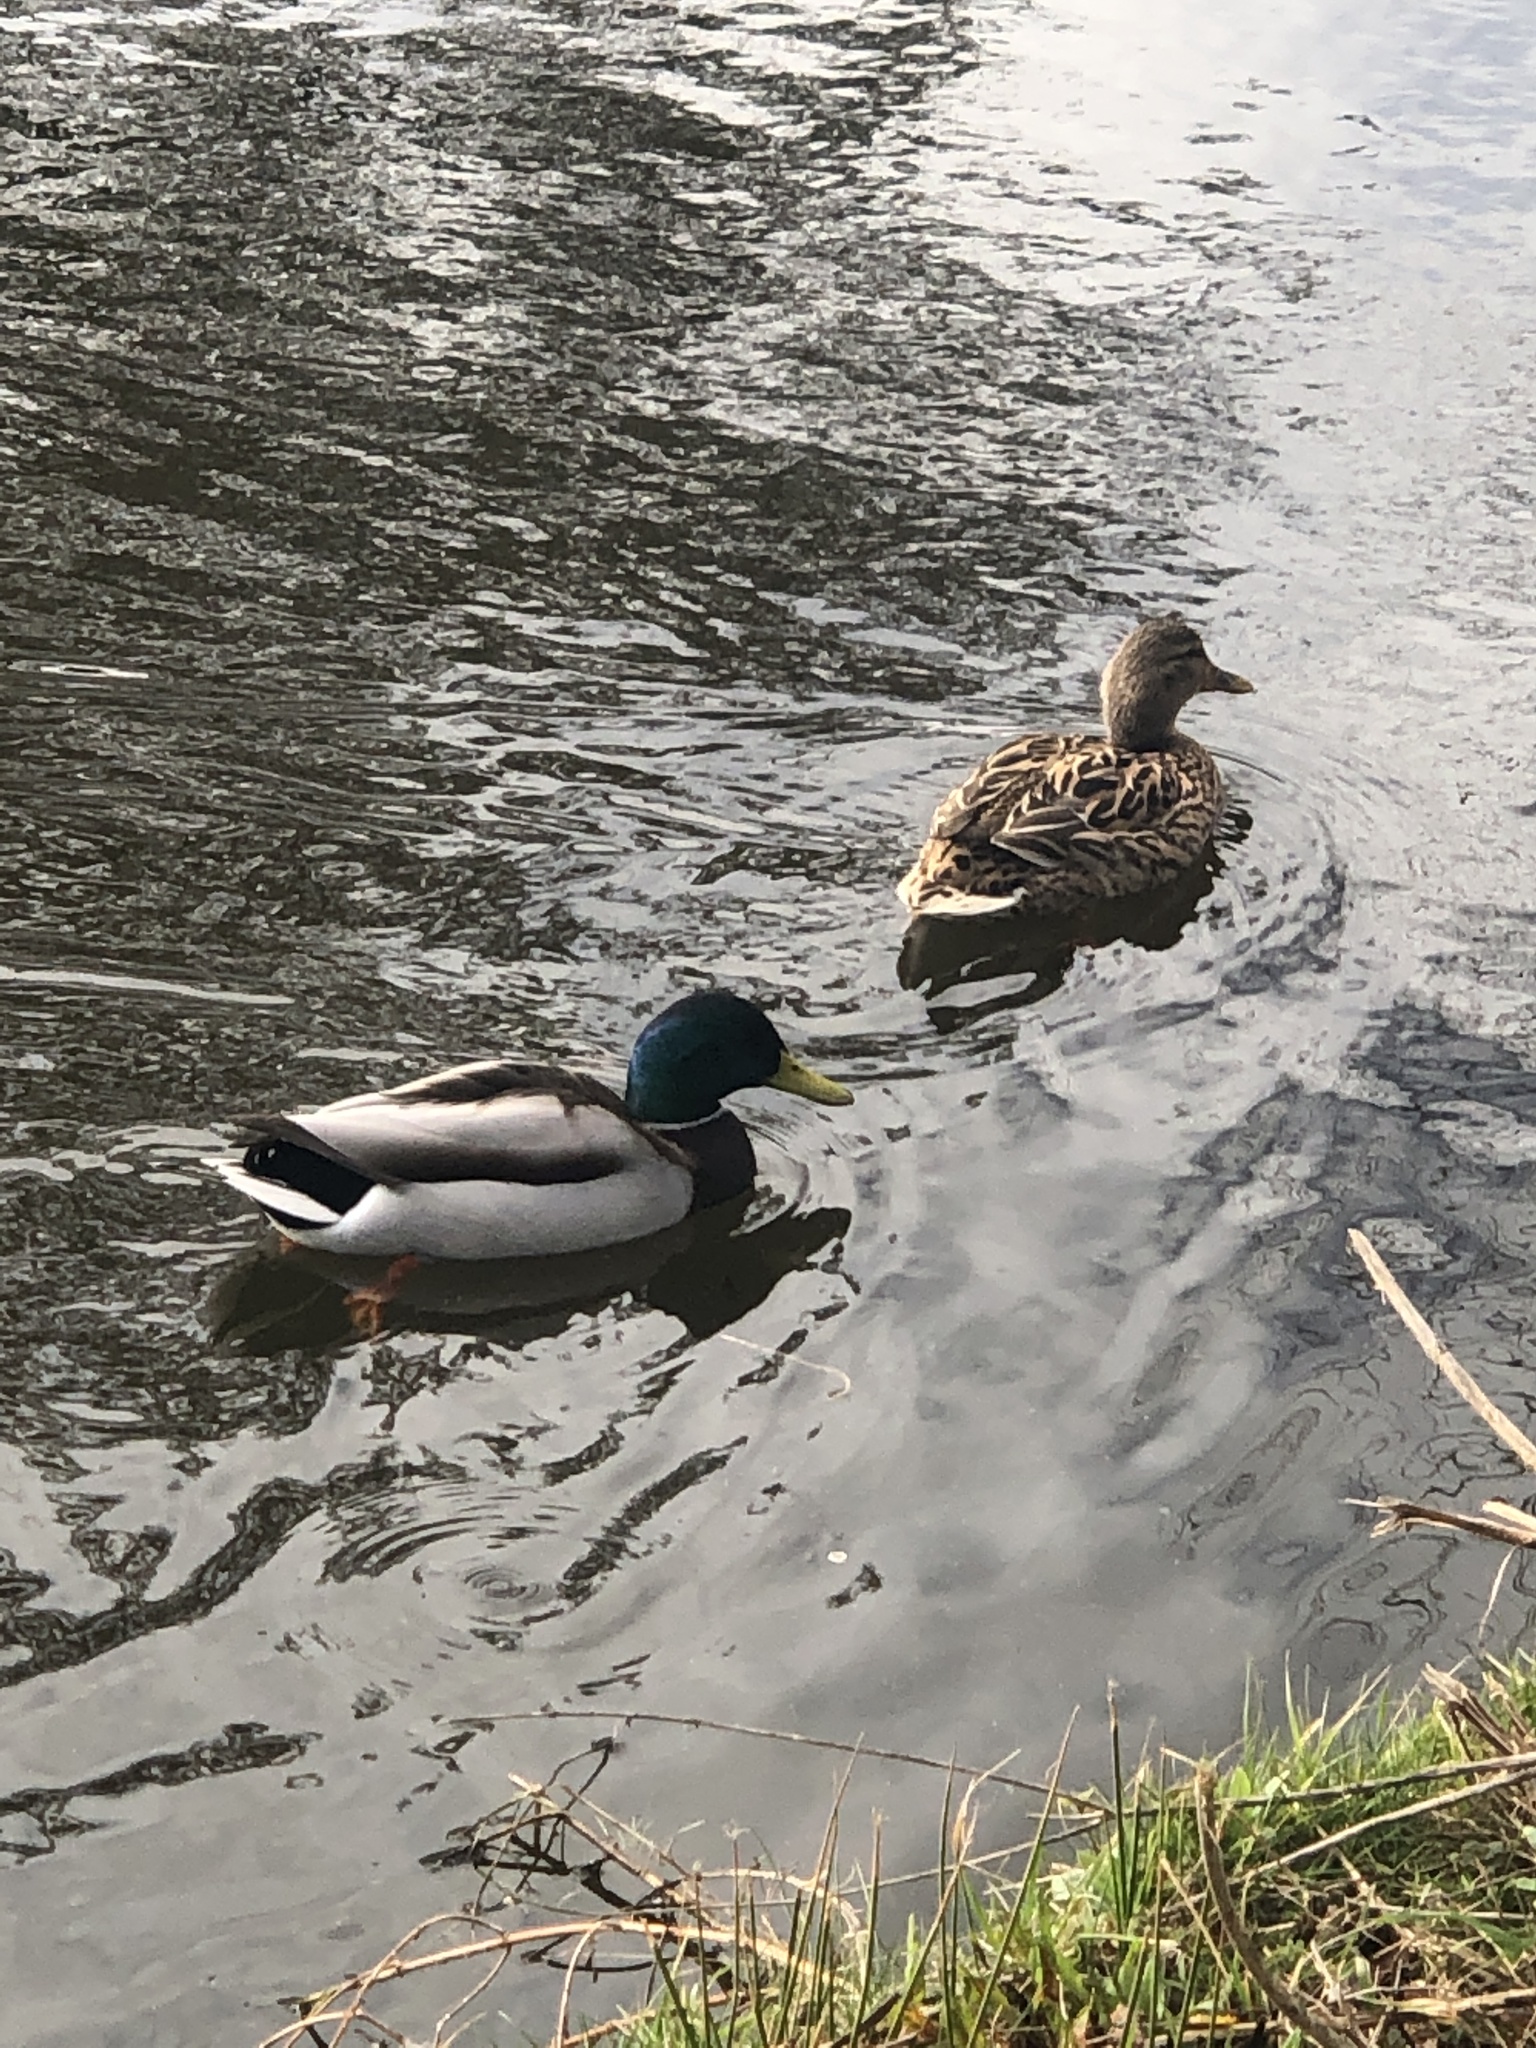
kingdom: Animalia
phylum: Chordata
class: Aves
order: Anseriformes
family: Anatidae
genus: Anas
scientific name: Anas platyrhynchos
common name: Mallard
